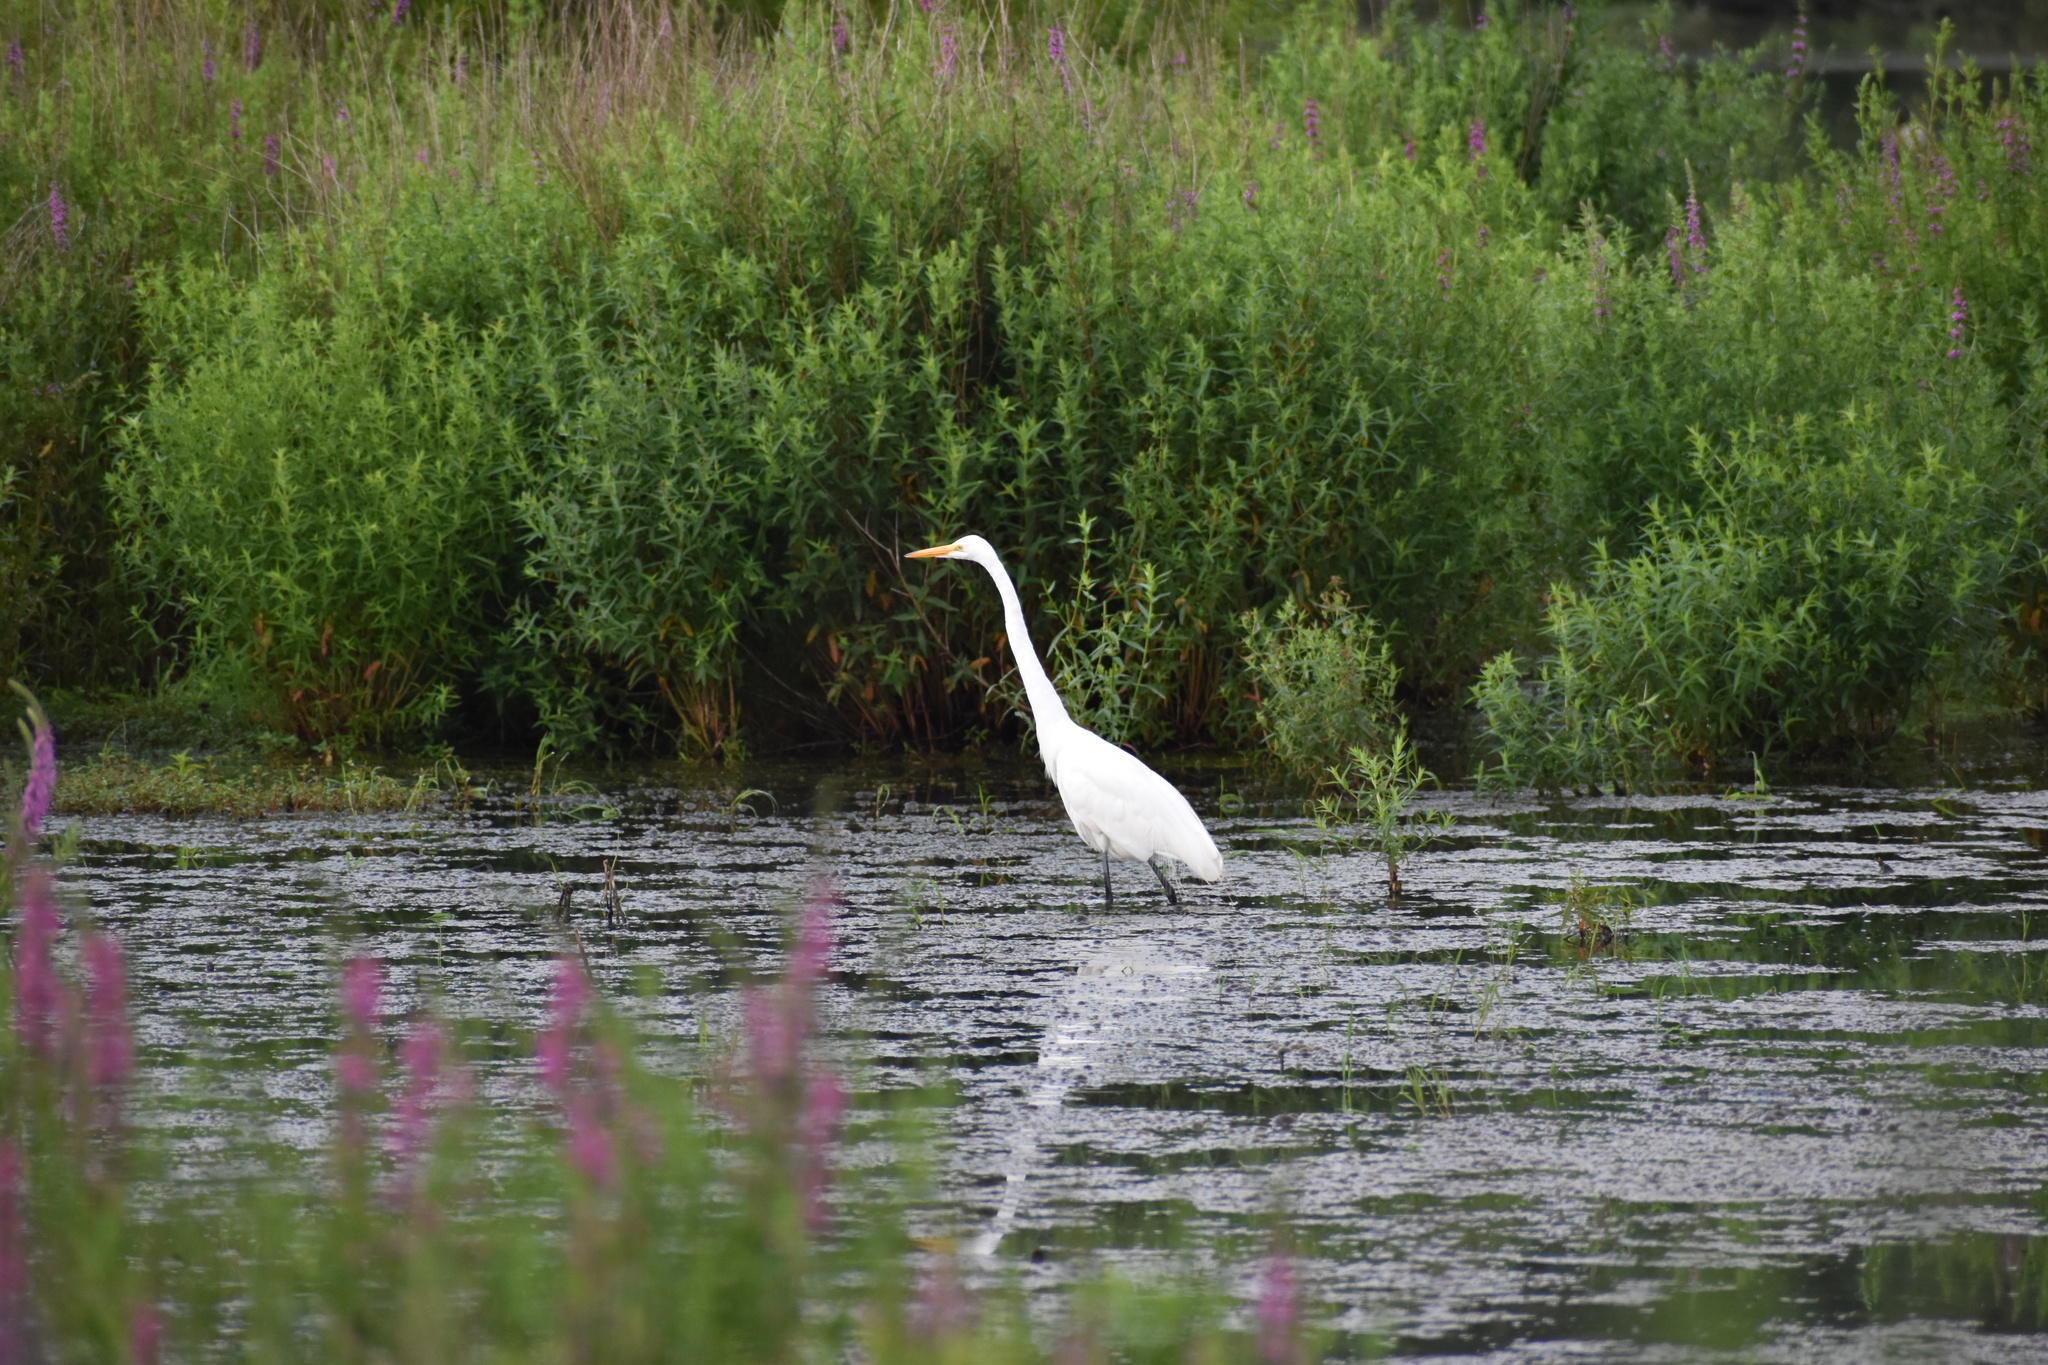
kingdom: Animalia
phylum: Chordata
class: Aves
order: Pelecaniformes
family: Ardeidae
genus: Ardea
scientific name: Ardea alba
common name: Great egret
